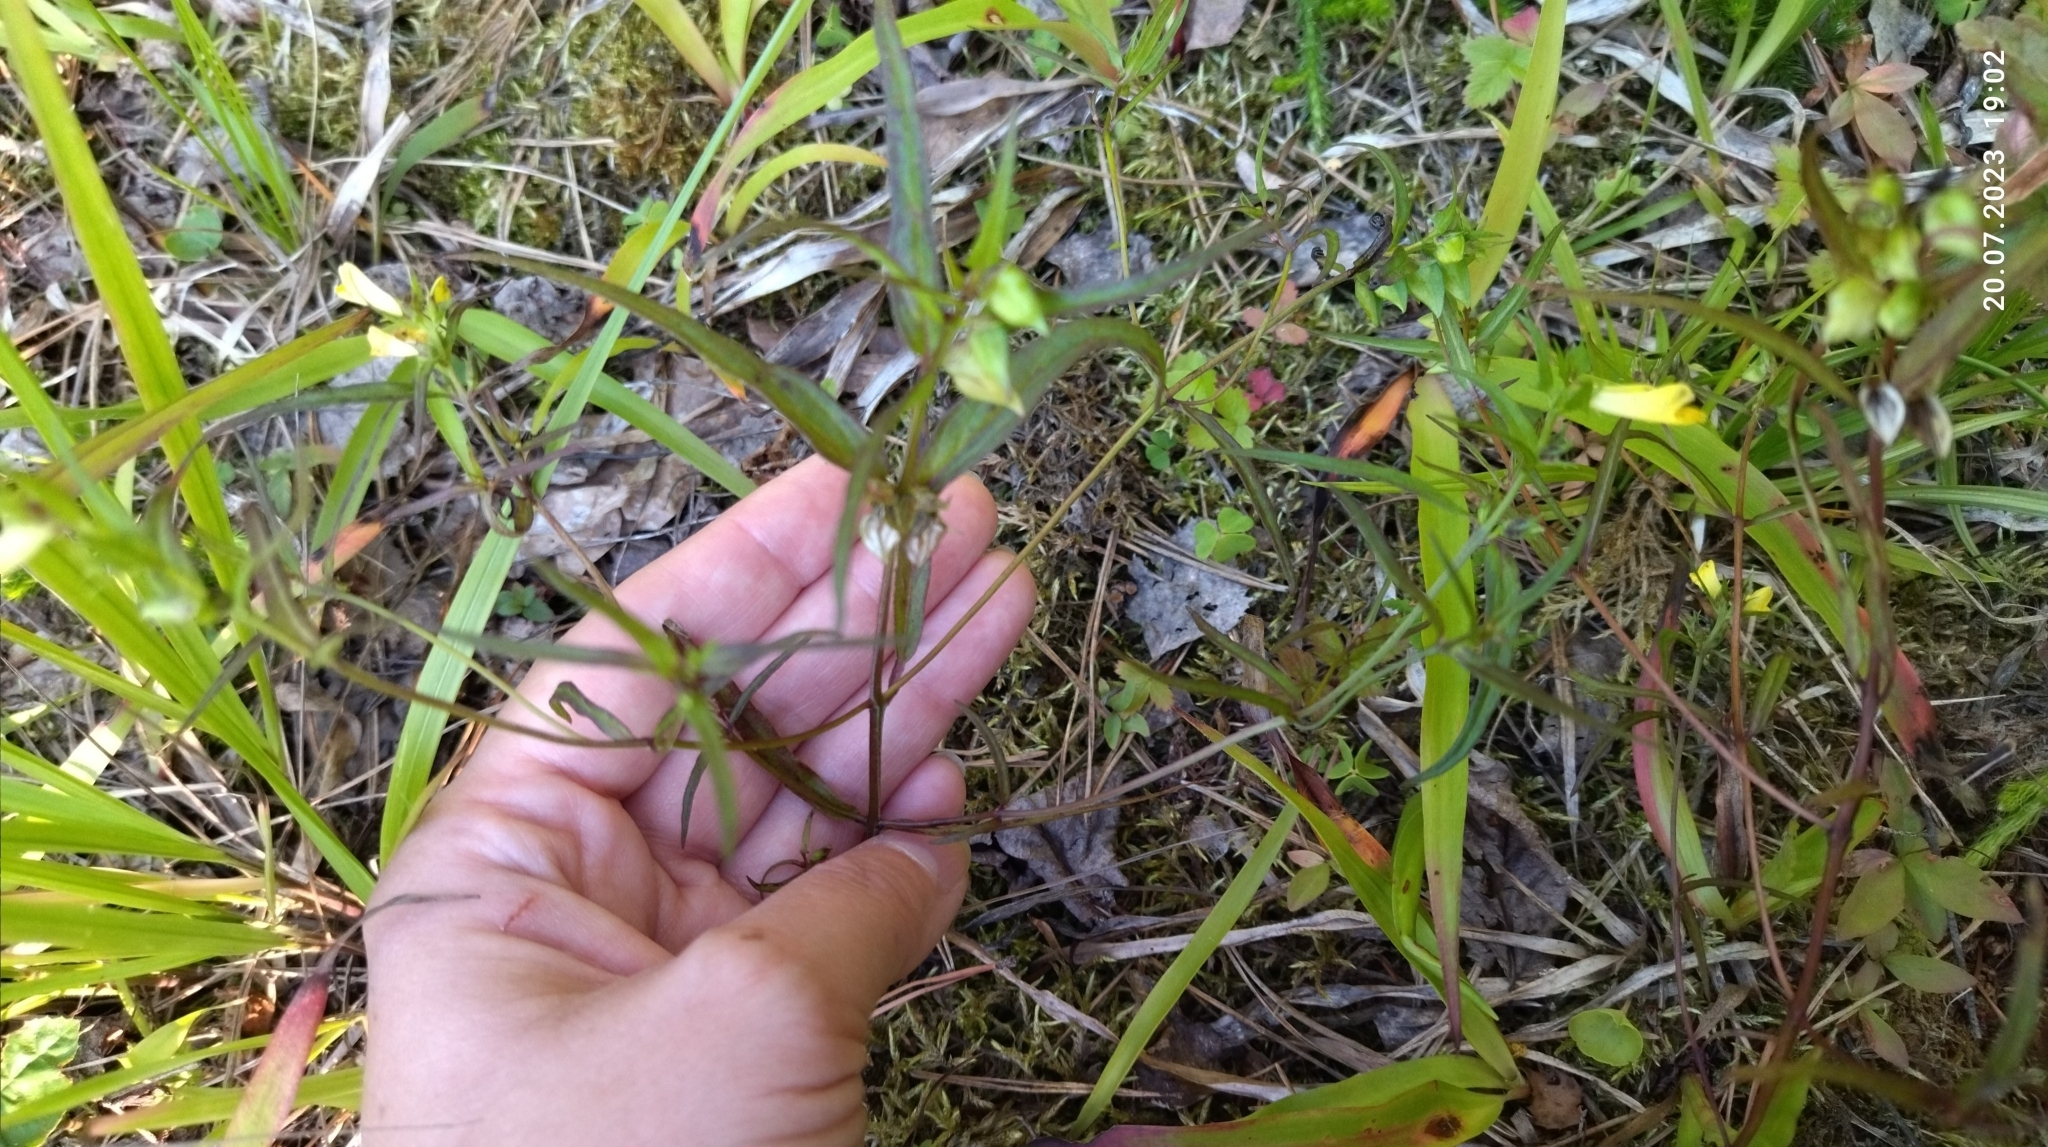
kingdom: Plantae
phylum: Tracheophyta
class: Magnoliopsida
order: Lamiales
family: Orobanchaceae
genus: Melampyrum
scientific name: Melampyrum pratense
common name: Common cow-wheat
